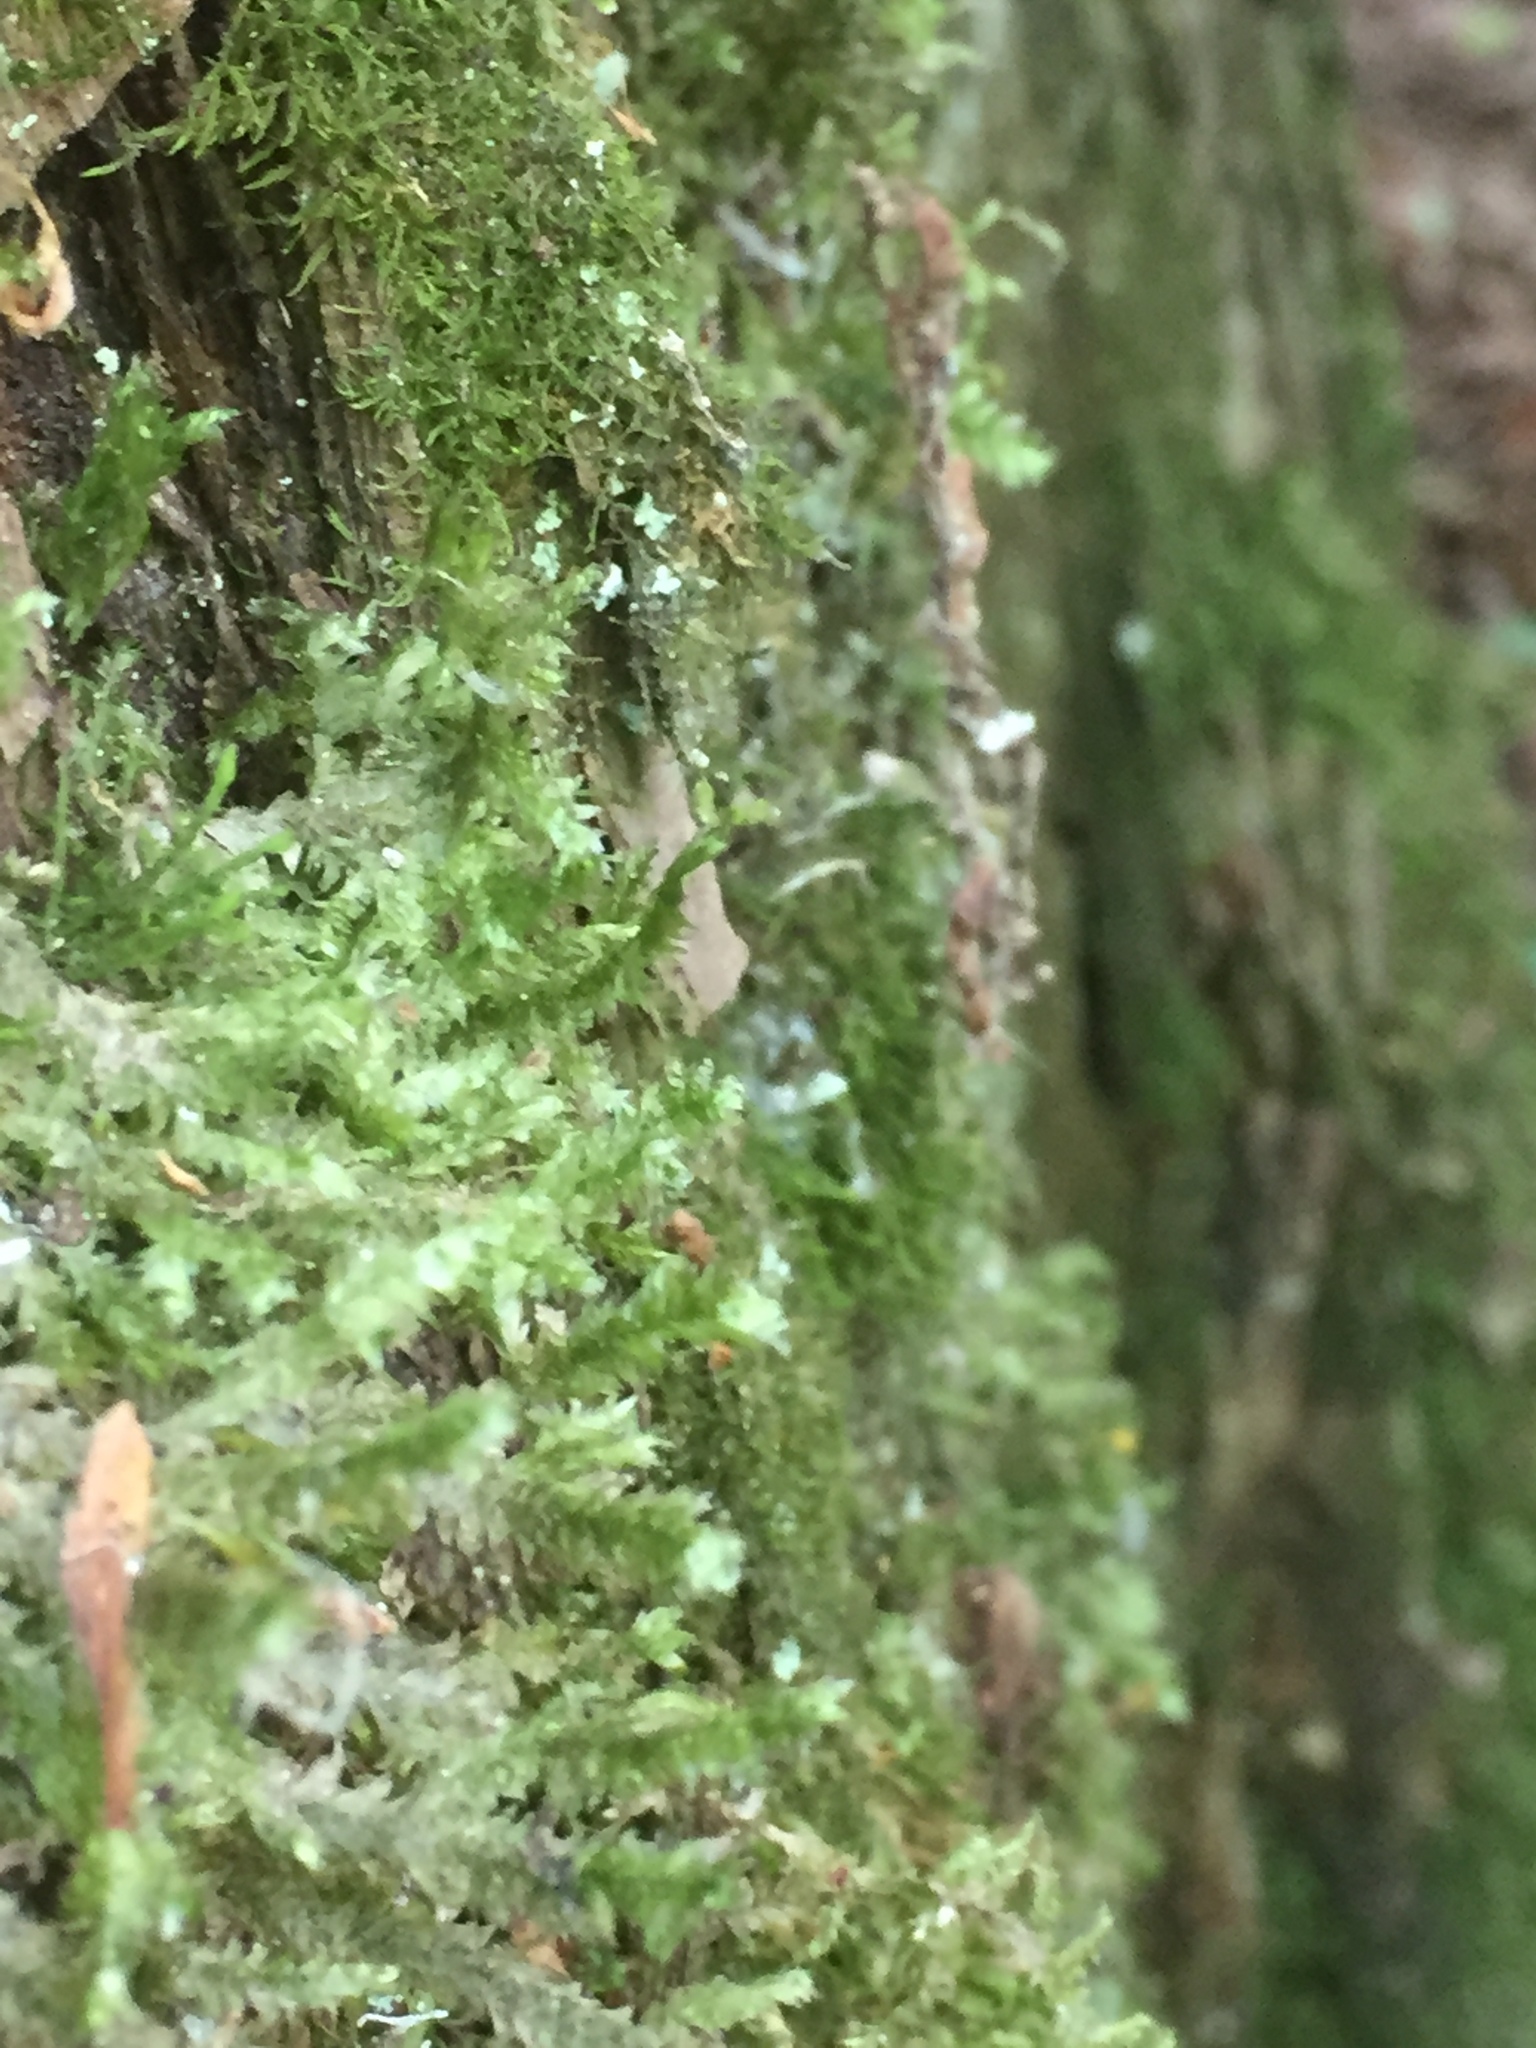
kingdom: Plantae
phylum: Bryophyta
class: Bryopsida
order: Hypnales
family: Neckeraceae
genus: Neckera
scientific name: Neckera pennata
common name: Feathery neckera
